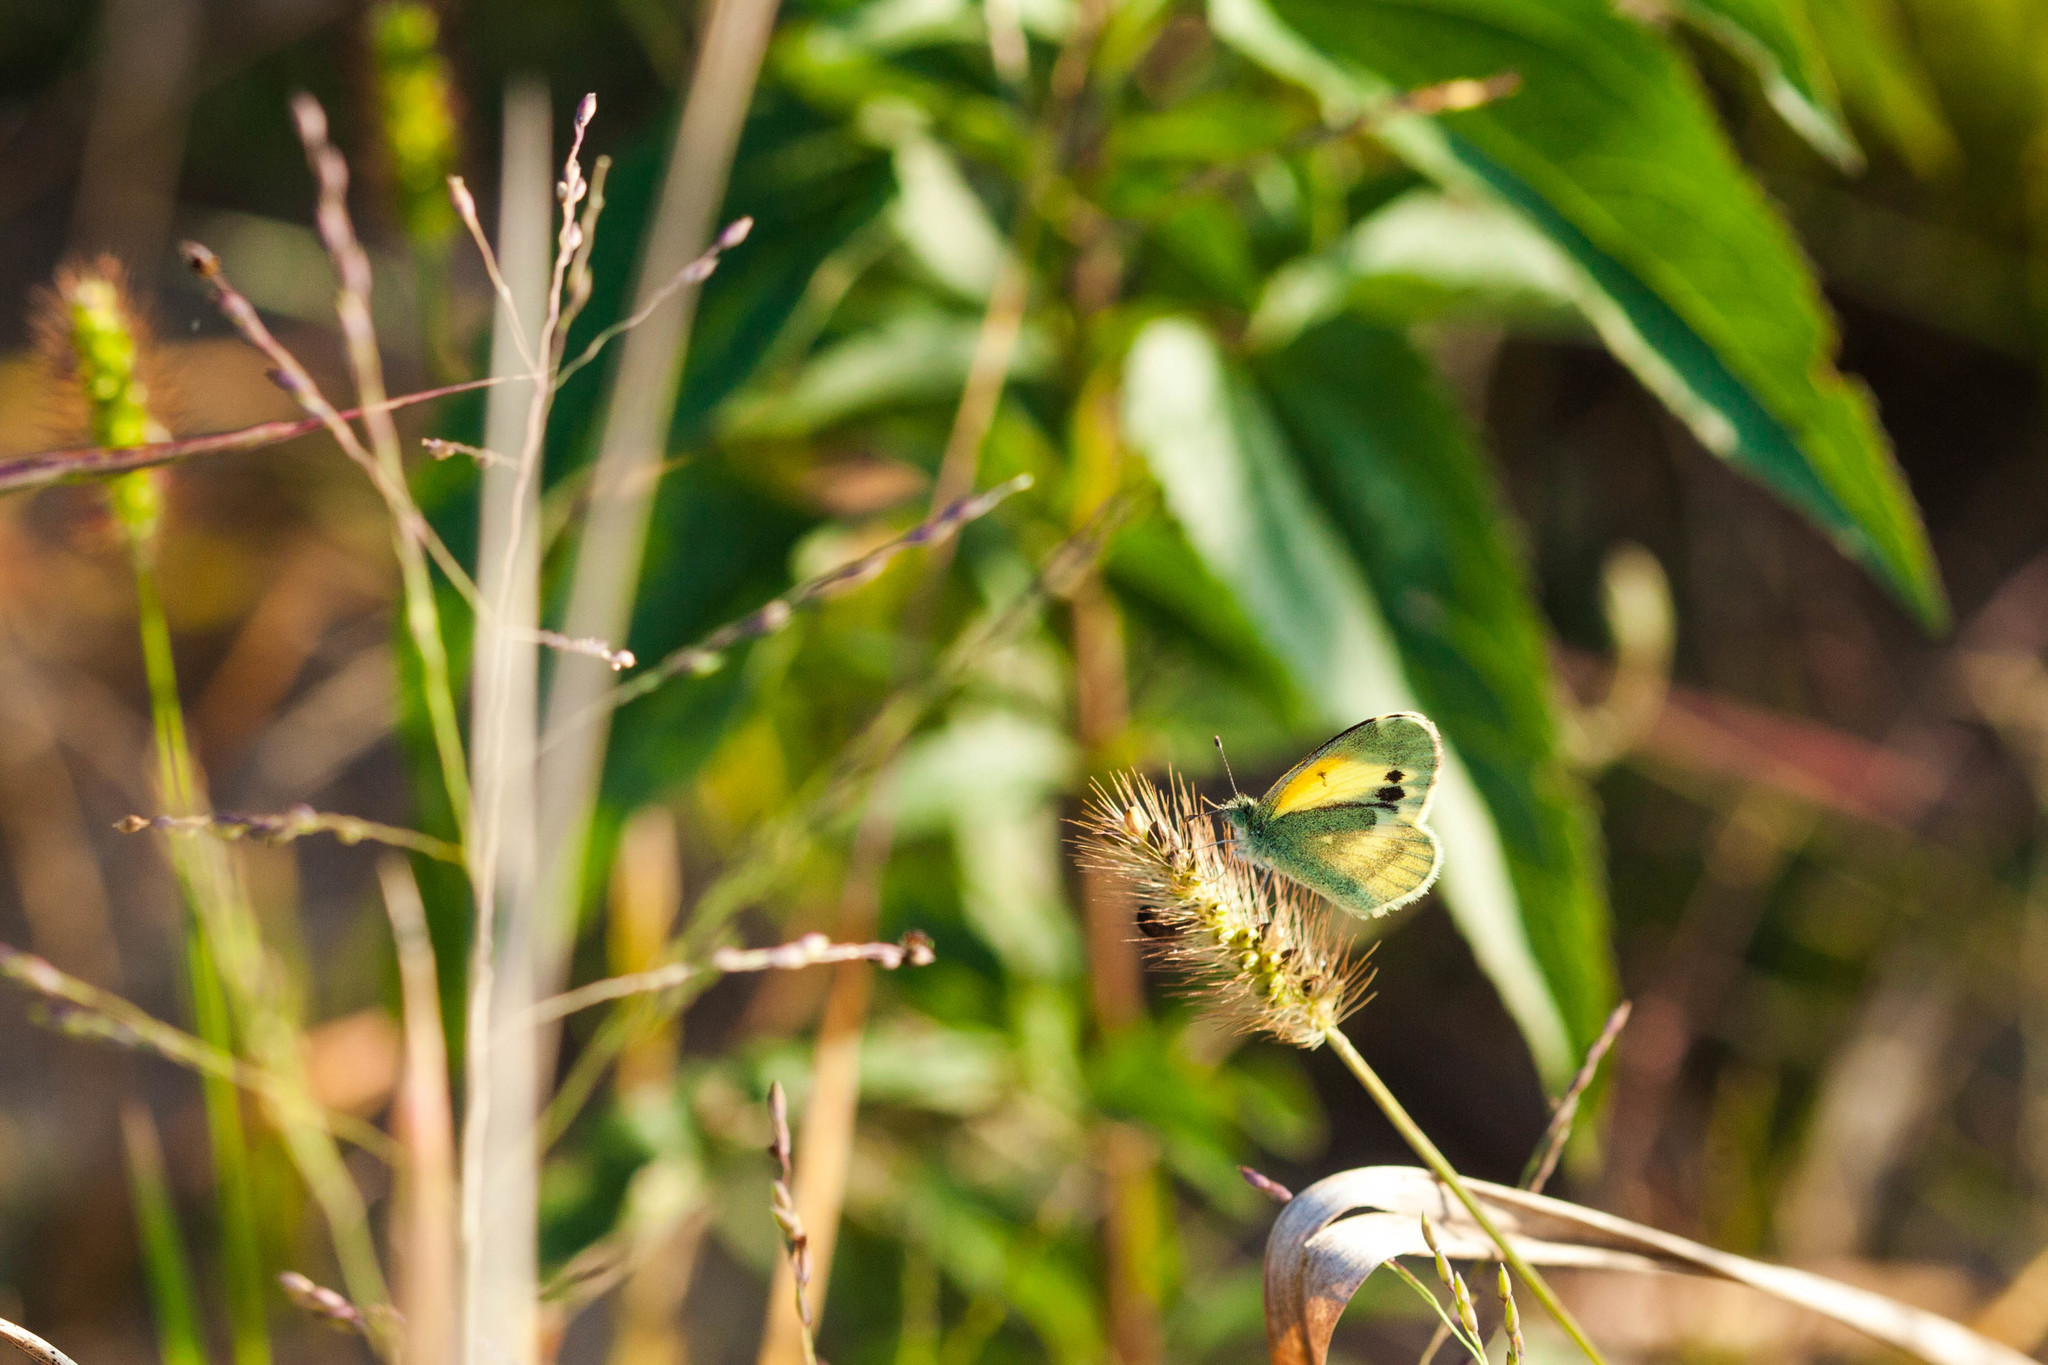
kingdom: Animalia
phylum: Arthropoda
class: Insecta
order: Lepidoptera
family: Pieridae
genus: Nathalis
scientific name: Nathalis iole
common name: Dainty sulphur
